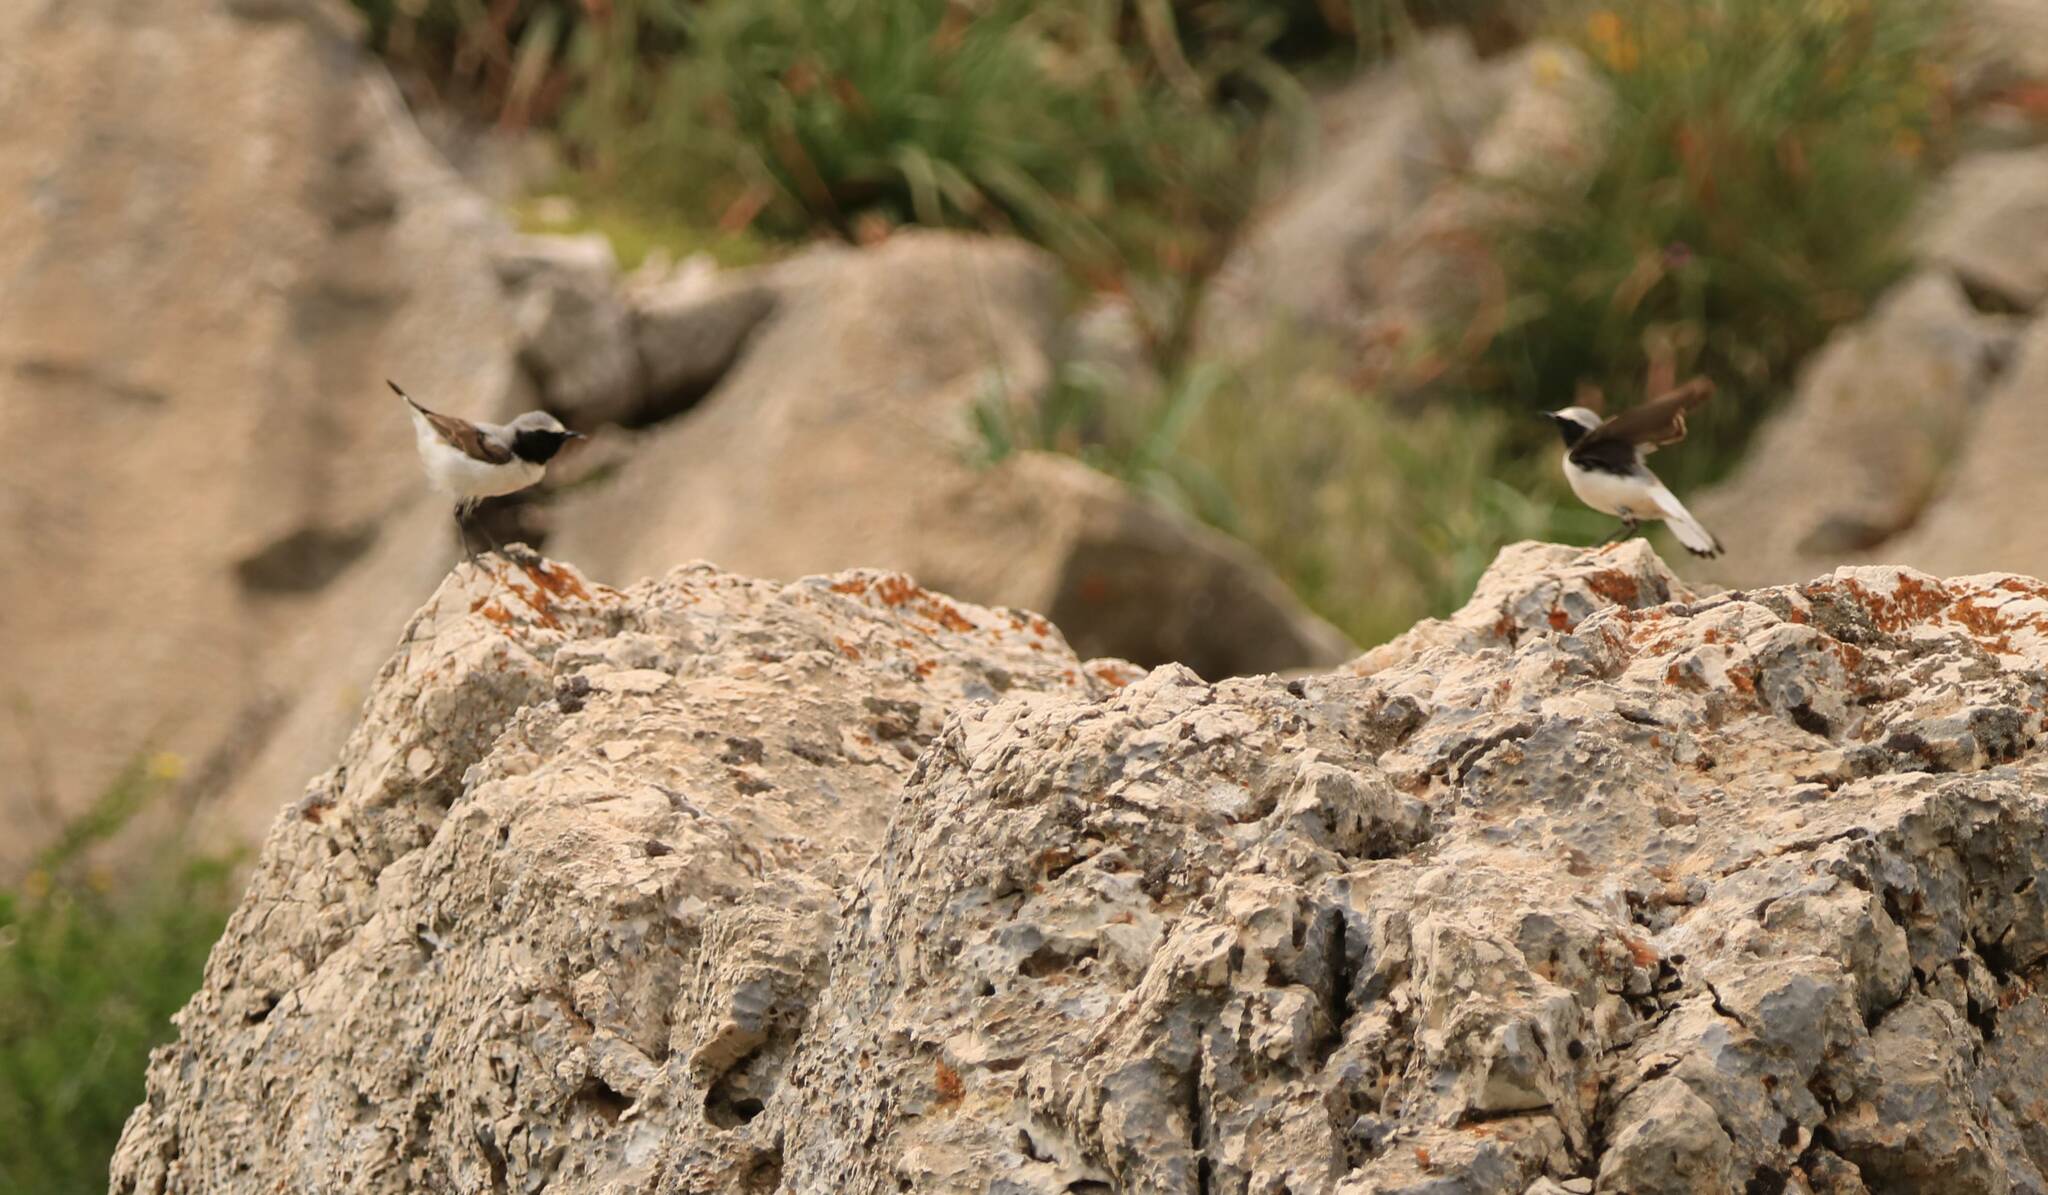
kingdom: Animalia
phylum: Chordata
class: Aves
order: Passeriformes
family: Muscicapidae
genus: Oenanthe
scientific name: Oenanthe oenanthe
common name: Northern wheatear
